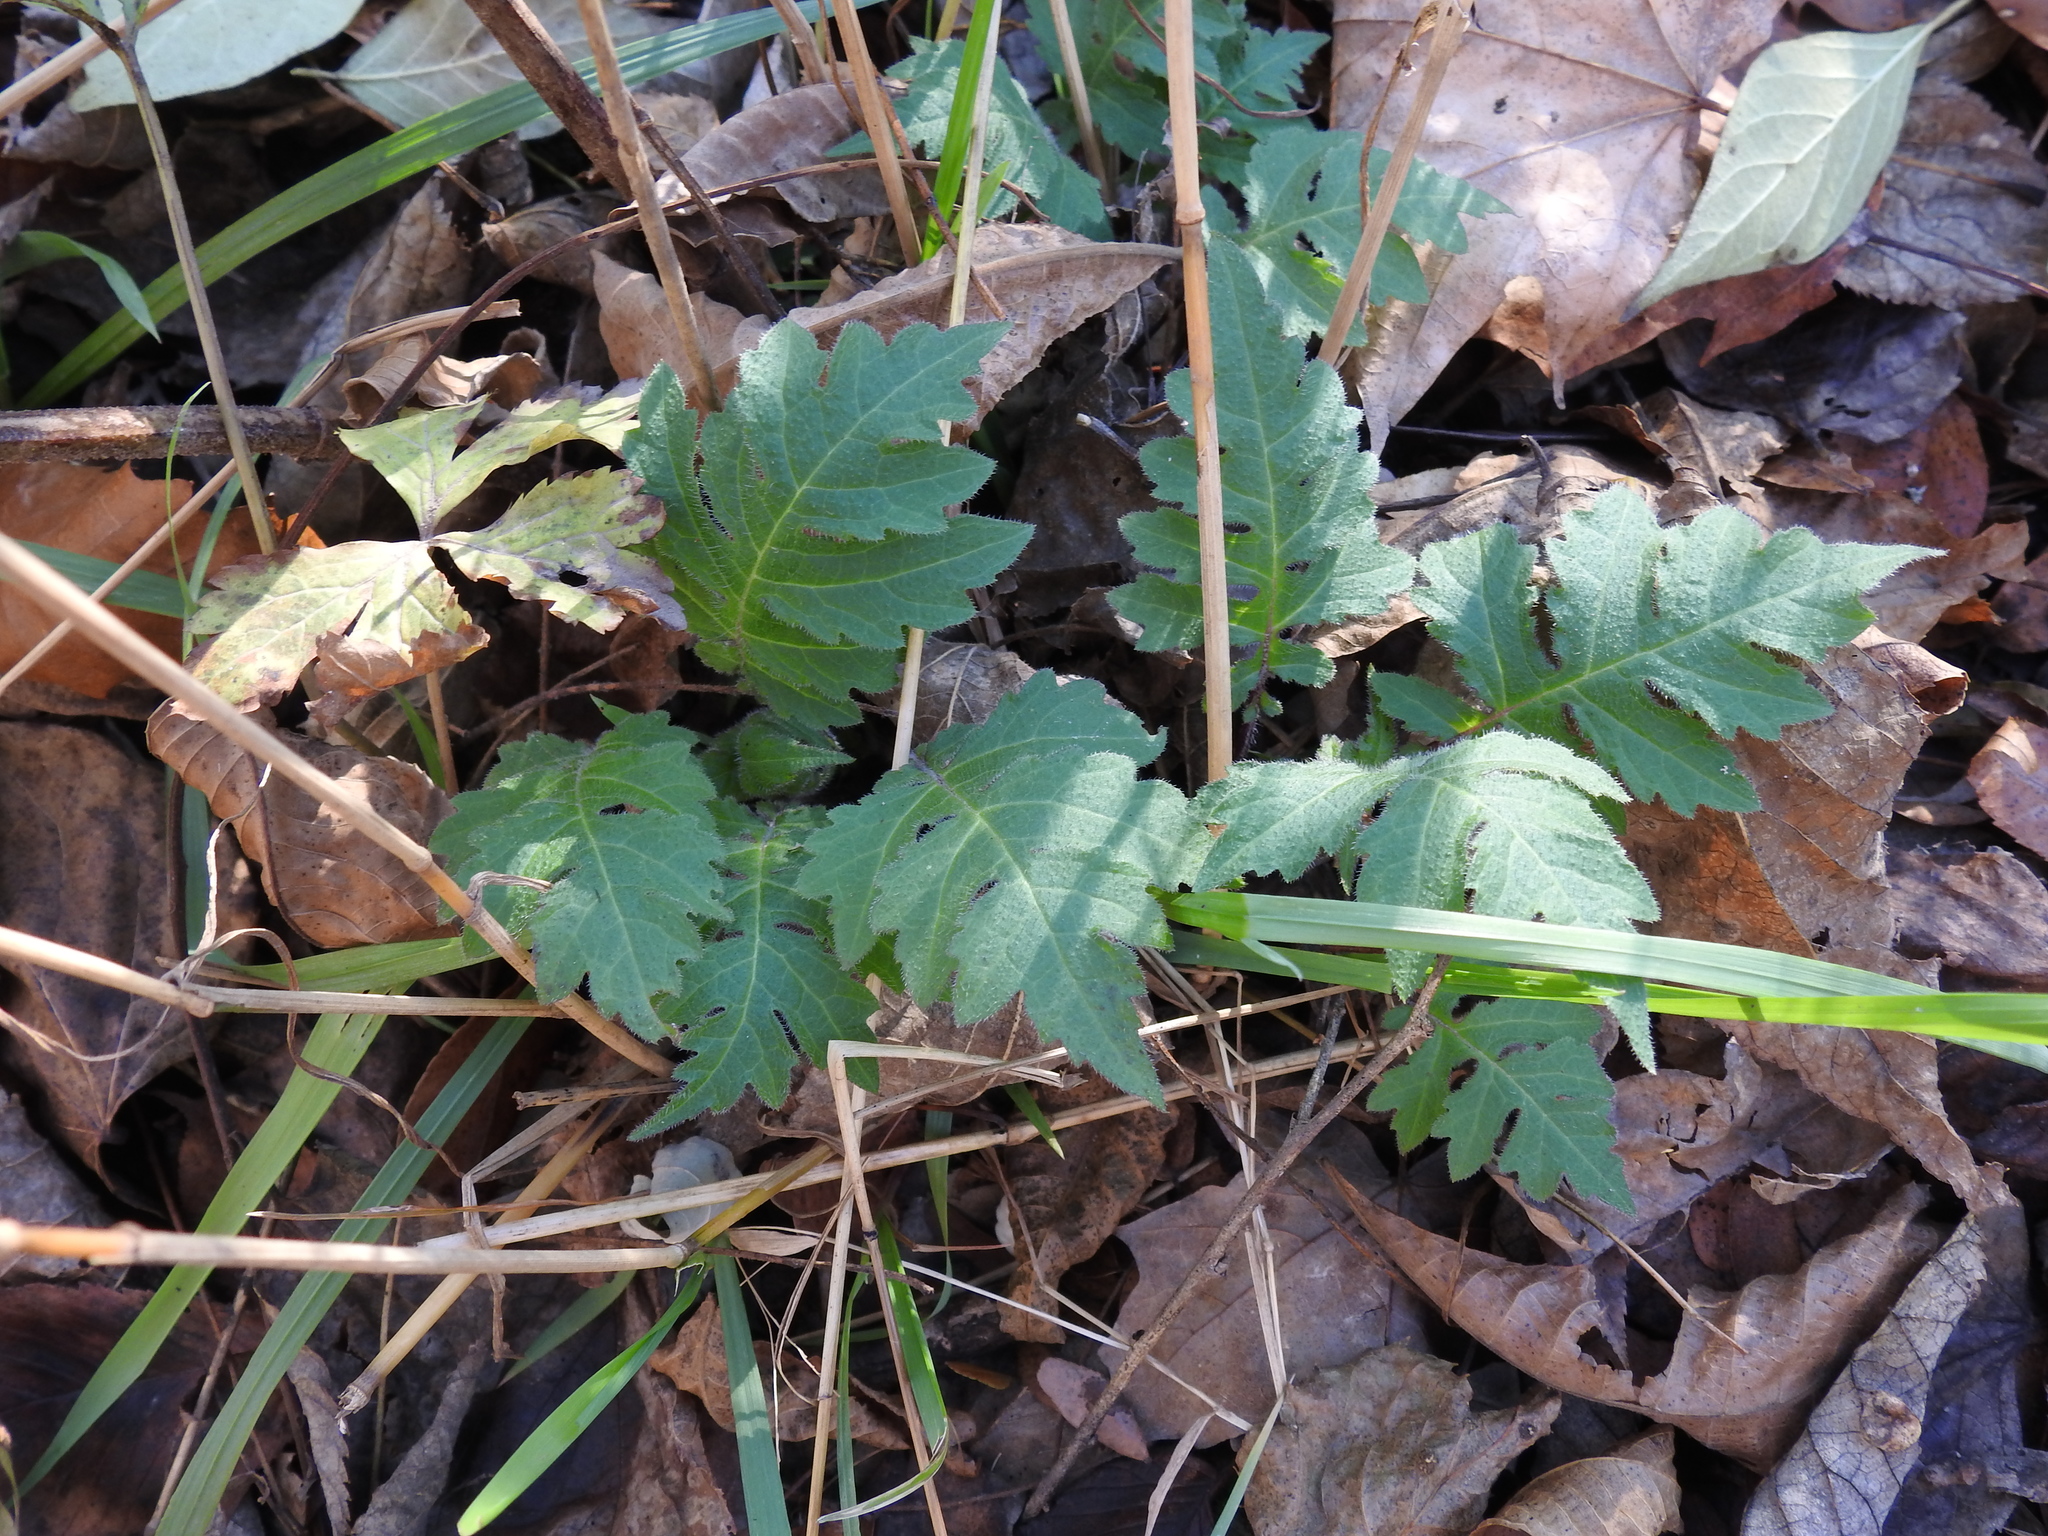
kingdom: Plantae
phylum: Tracheophyta
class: Magnoliopsida
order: Asterales
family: Asteraceae
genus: Polymnia
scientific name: Polymnia canadensis
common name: Pale-flowered leafcup
